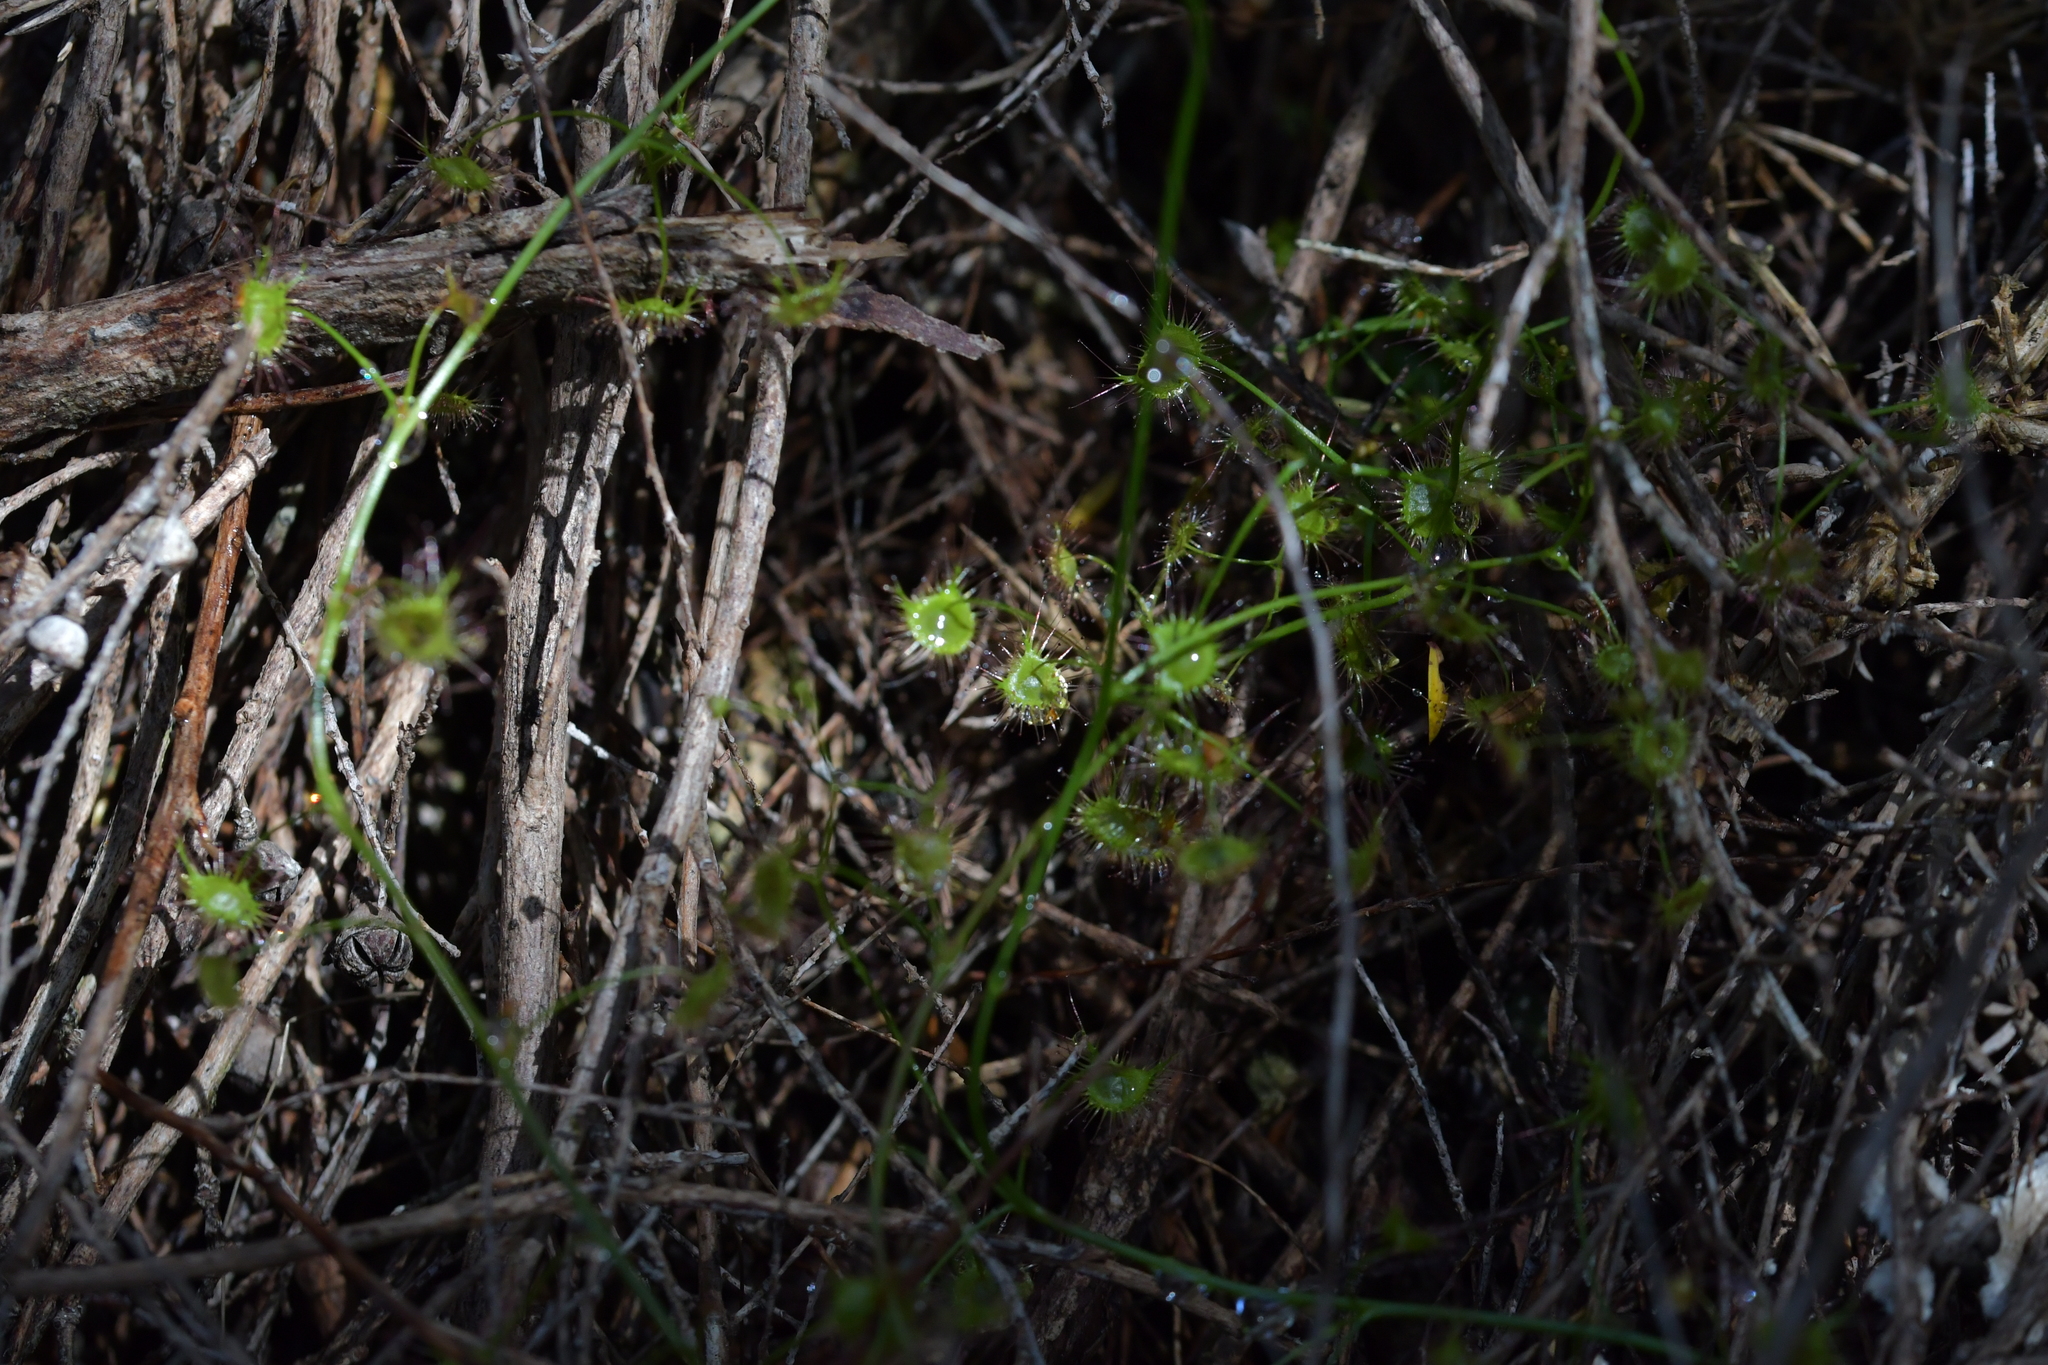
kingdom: Plantae
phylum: Tracheophyta
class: Magnoliopsida
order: Caryophyllales
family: Droseraceae
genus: Drosera
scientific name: Drosera peltata
